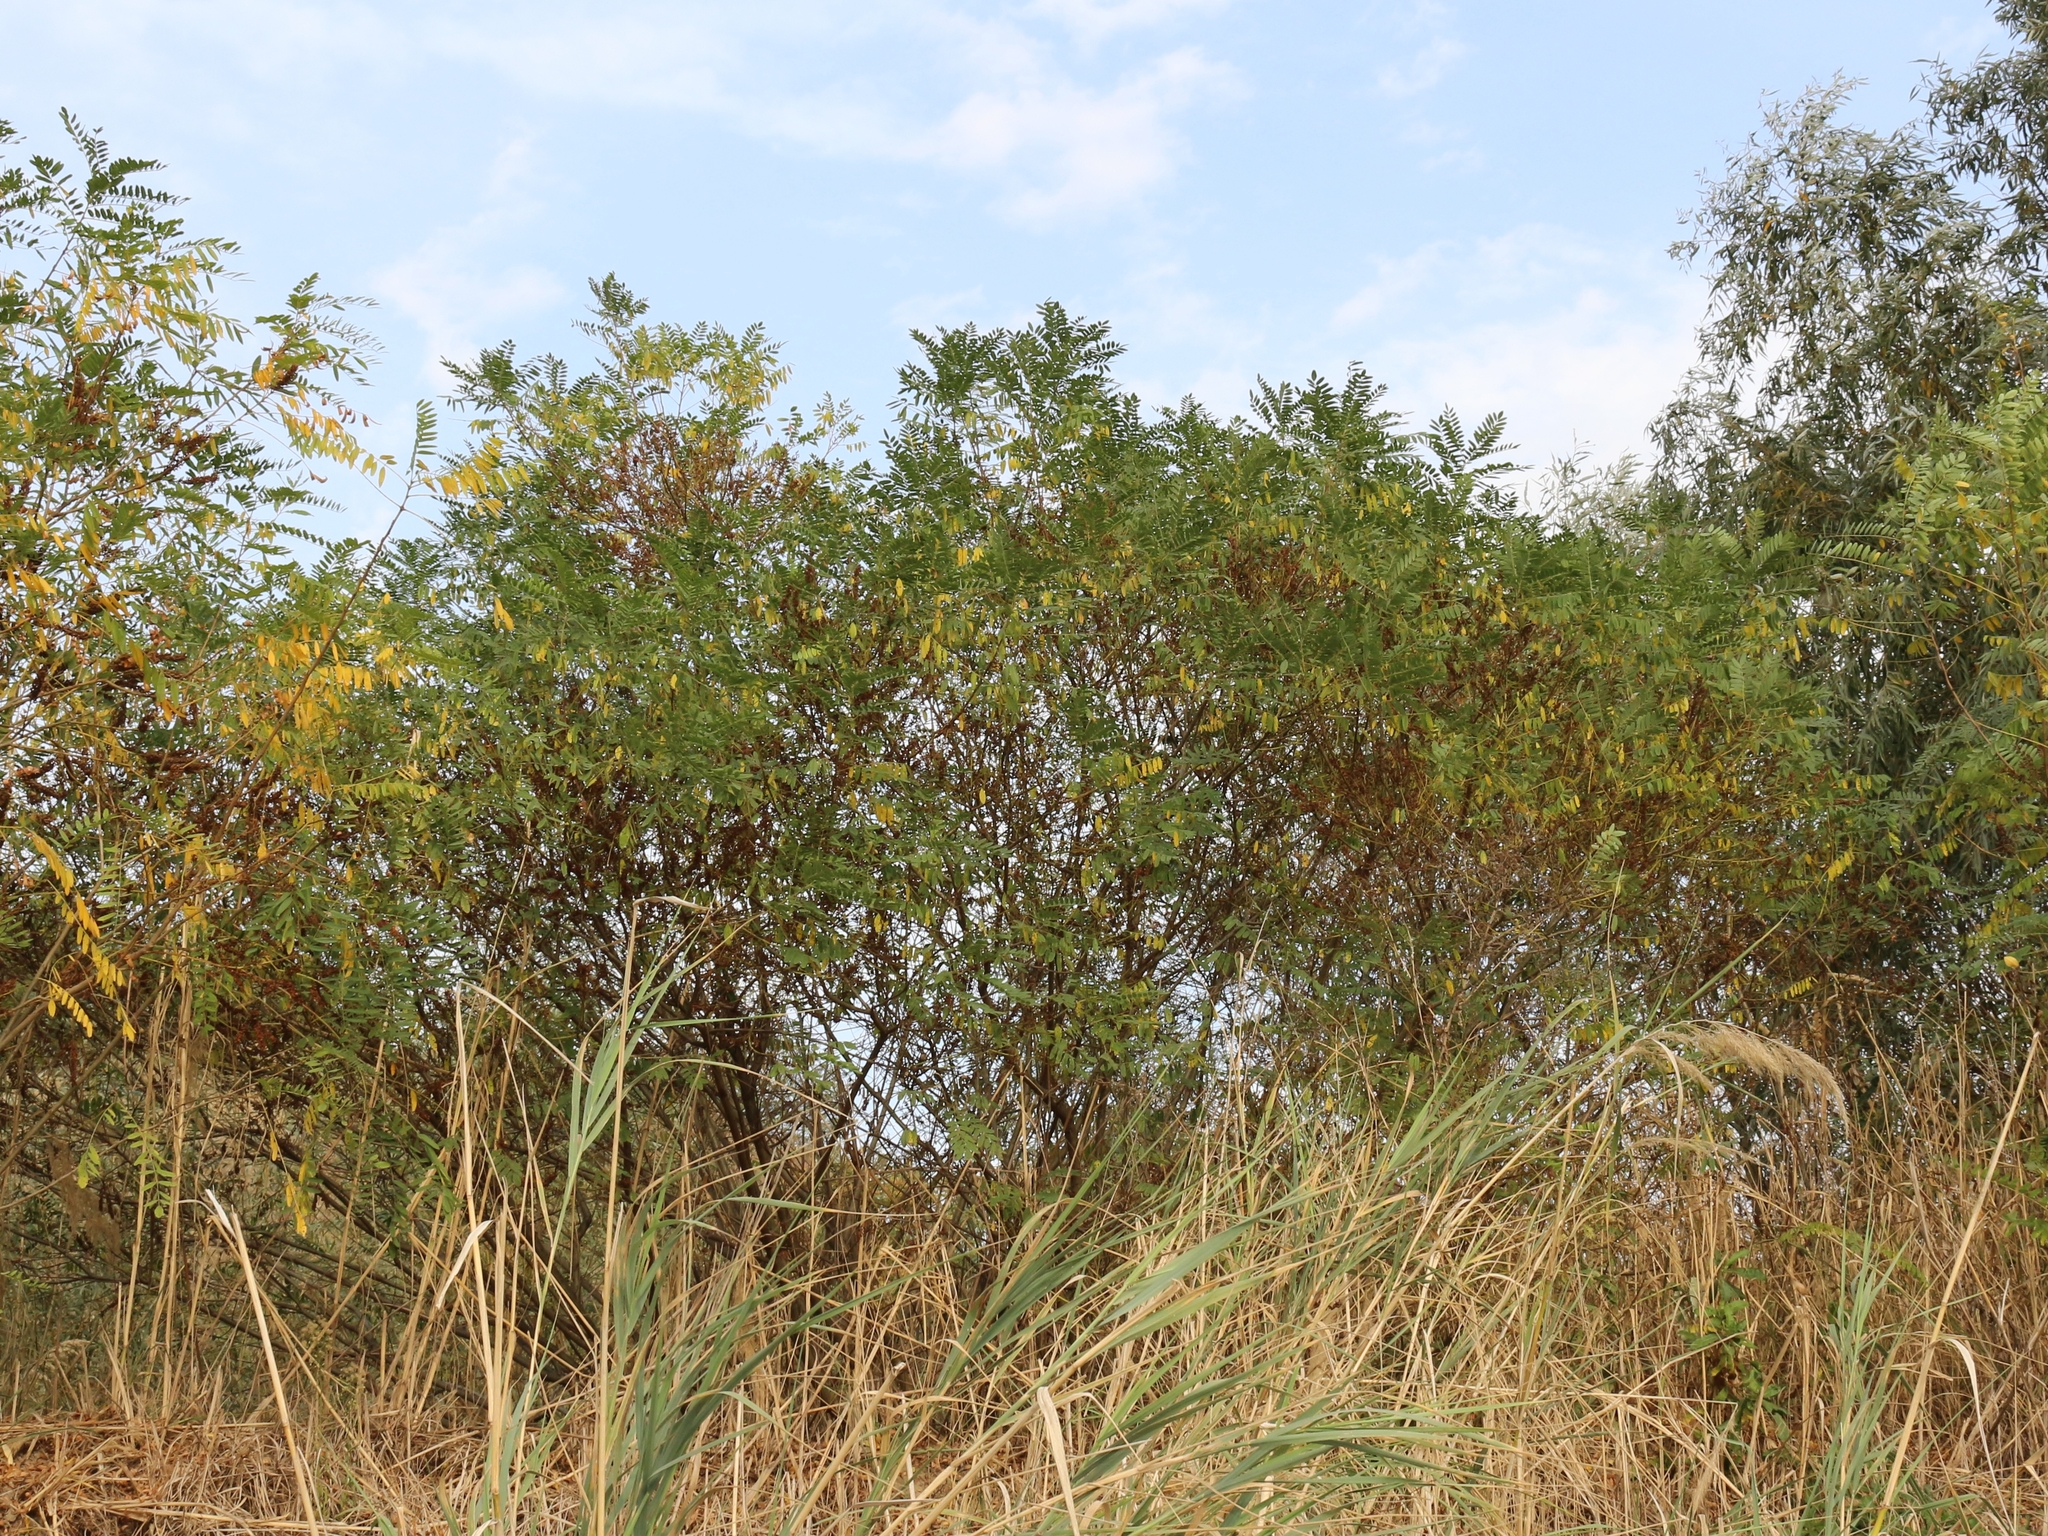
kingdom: Plantae
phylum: Tracheophyta
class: Magnoliopsida
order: Fabales
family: Fabaceae
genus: Amorpha
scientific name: Amorpha fruticosa
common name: False indigo
